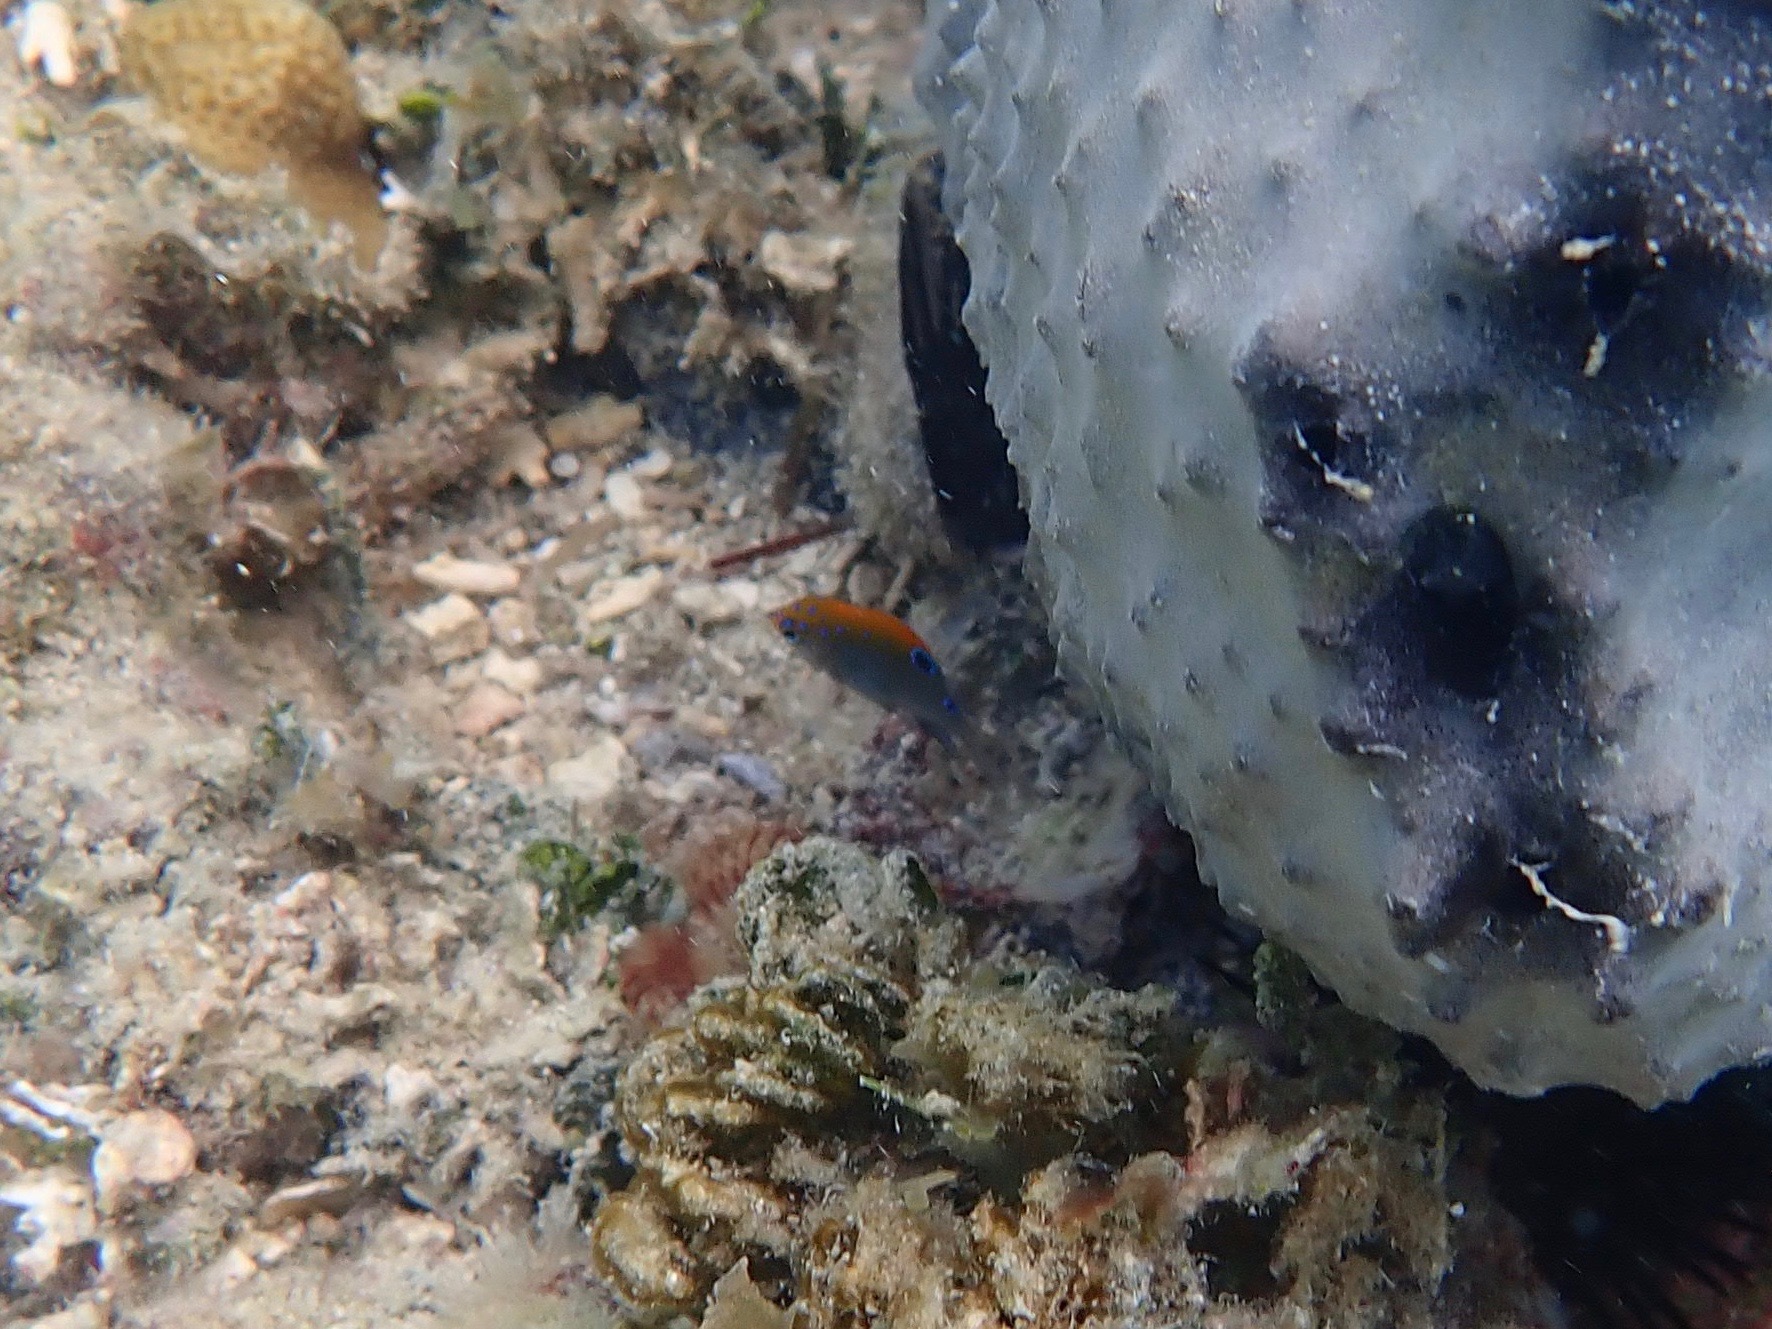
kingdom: Animalia
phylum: Chordata
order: Perciformes
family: Pomacentridae
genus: Stegastes
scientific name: Stegastes adustus
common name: Dusky damselfish
